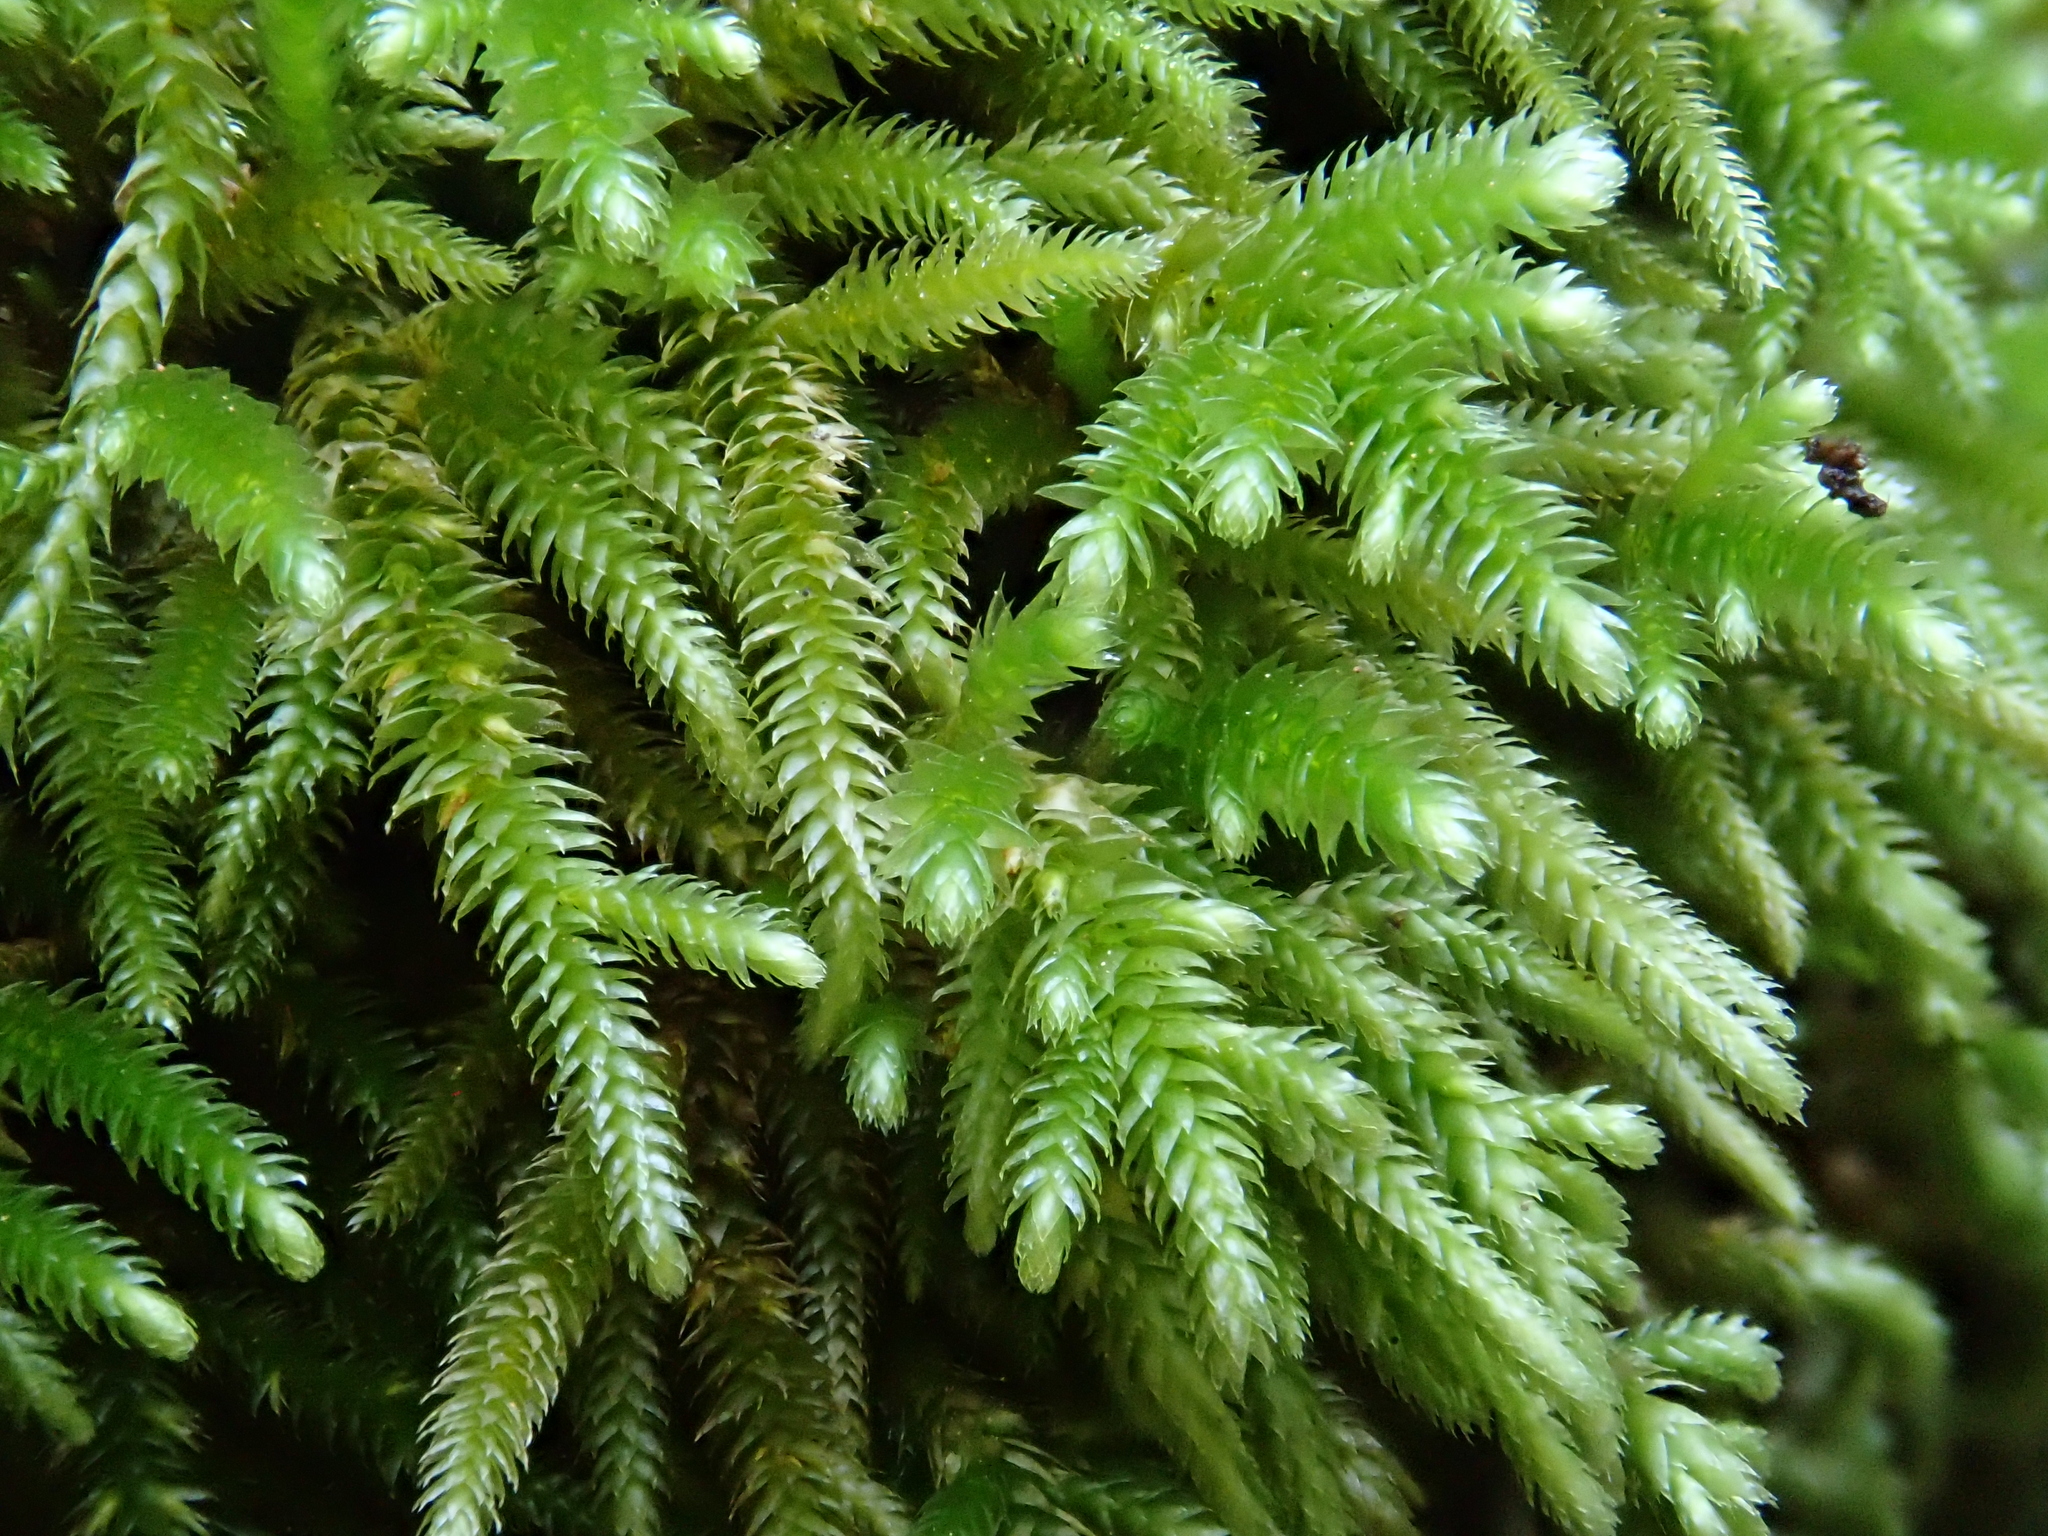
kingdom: Plantae
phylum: Bryophyta
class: Bryopsida
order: Hypnales
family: Lembophyllaceae
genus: Nogopterium
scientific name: Nogopterium gracile
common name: Bird's-foot wing-moss
